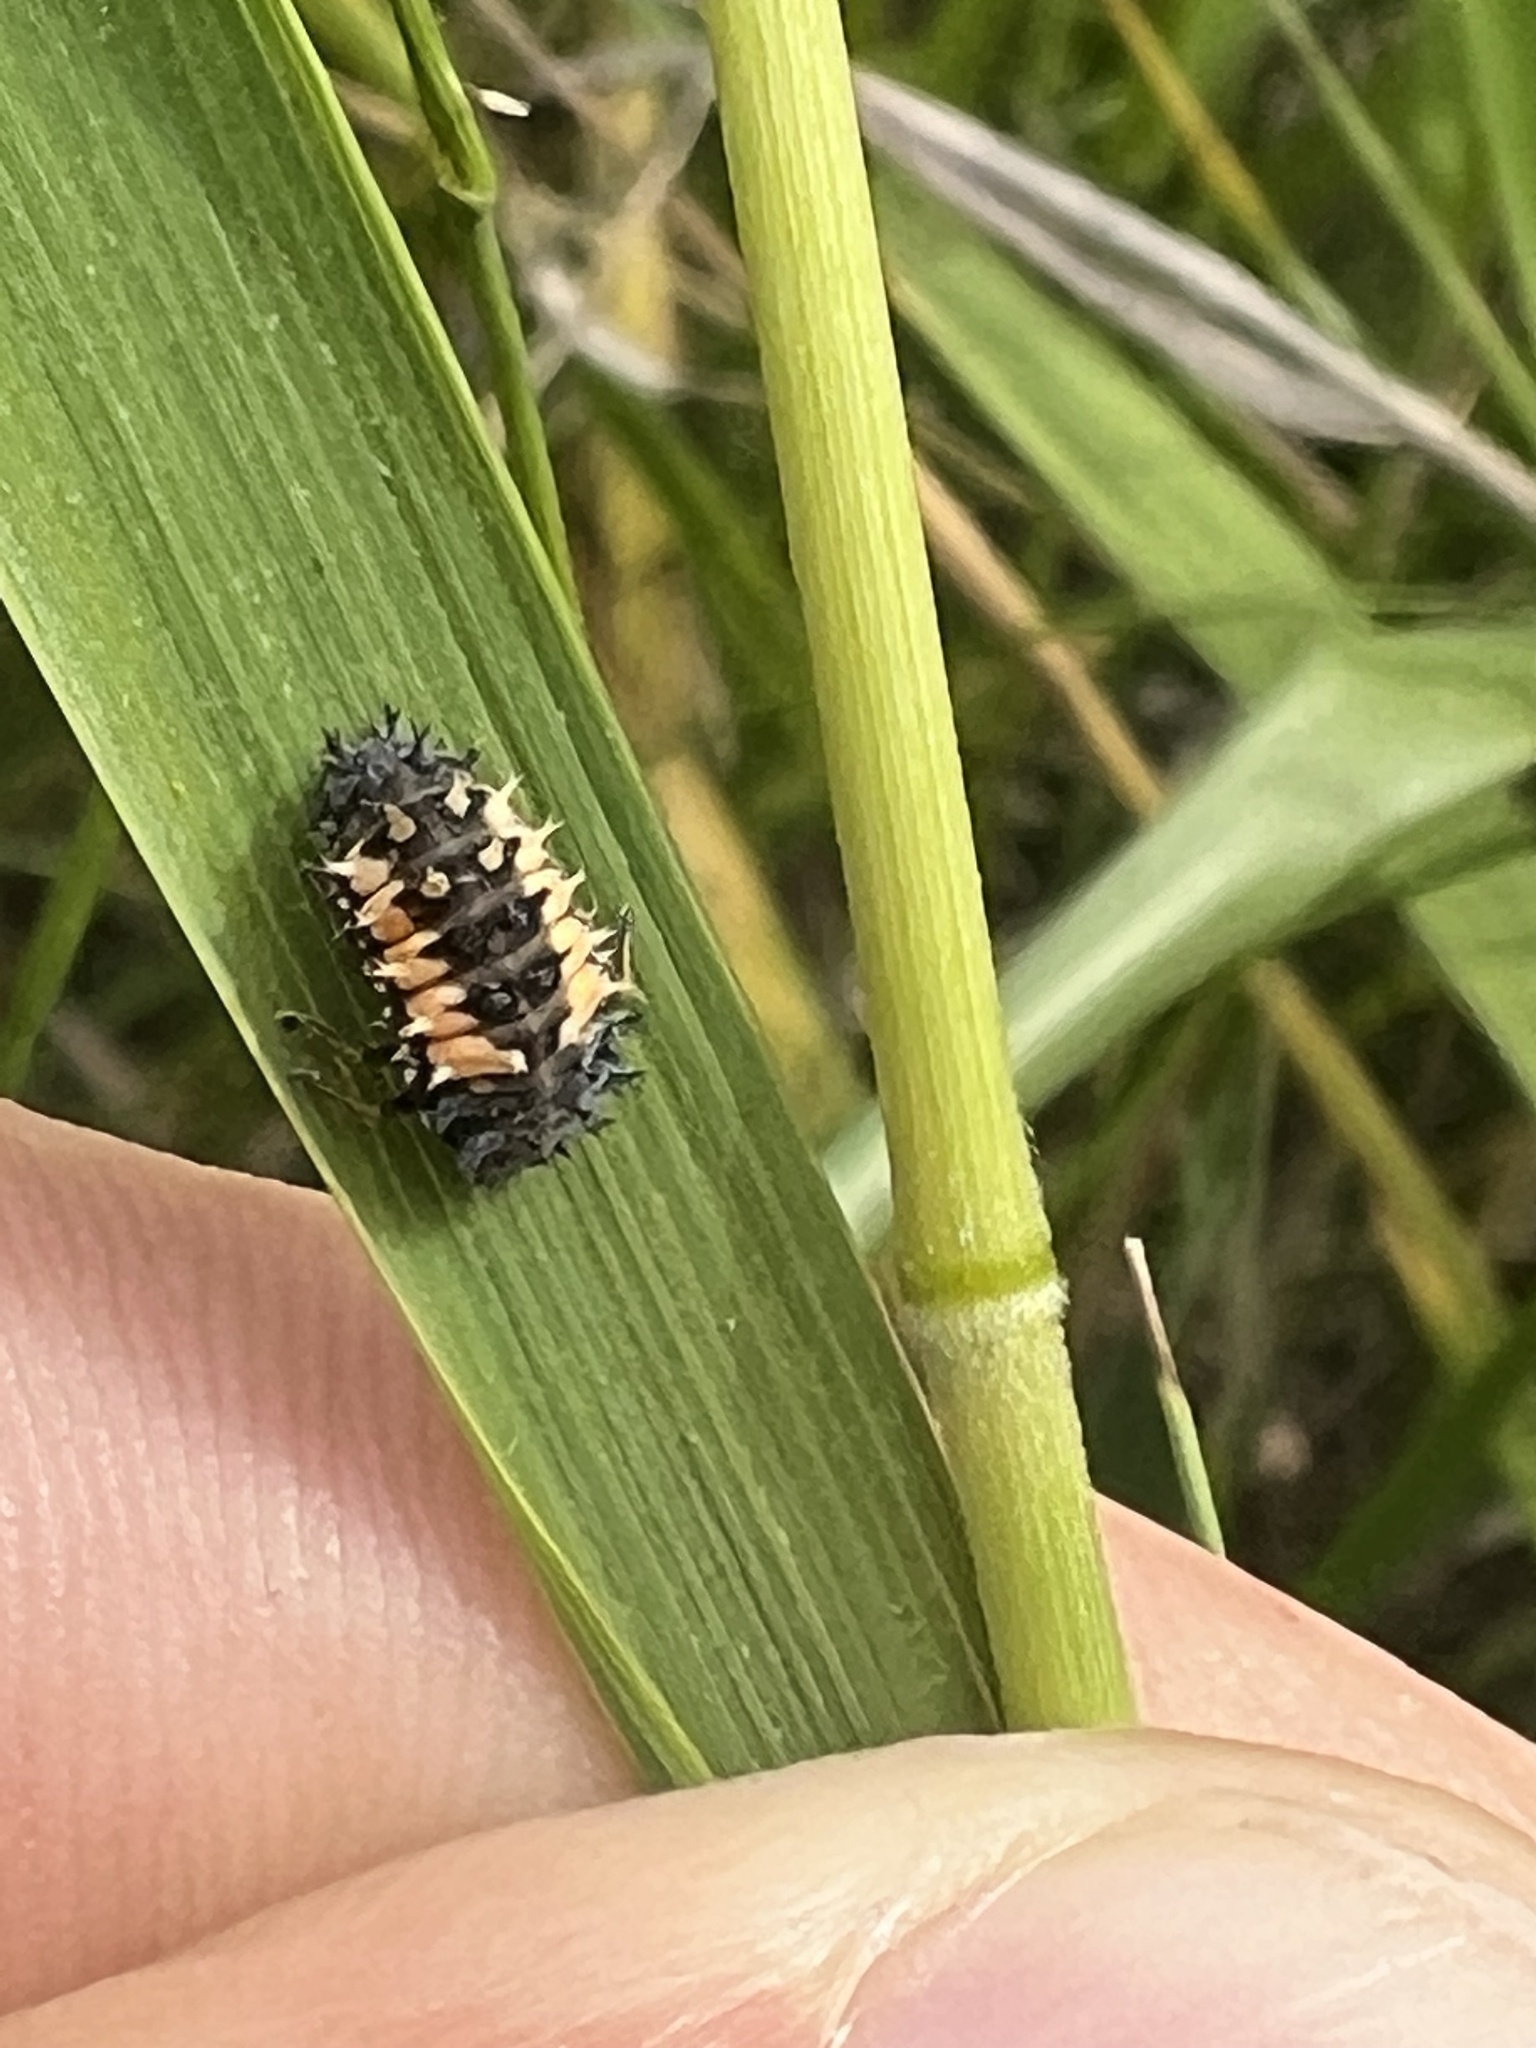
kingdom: Animalia
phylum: Arthropoda
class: Insecta
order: Coleoptera
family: Coccinellidae
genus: Harmonia
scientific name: Harmonia axyridis
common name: Harlequin ladybird
